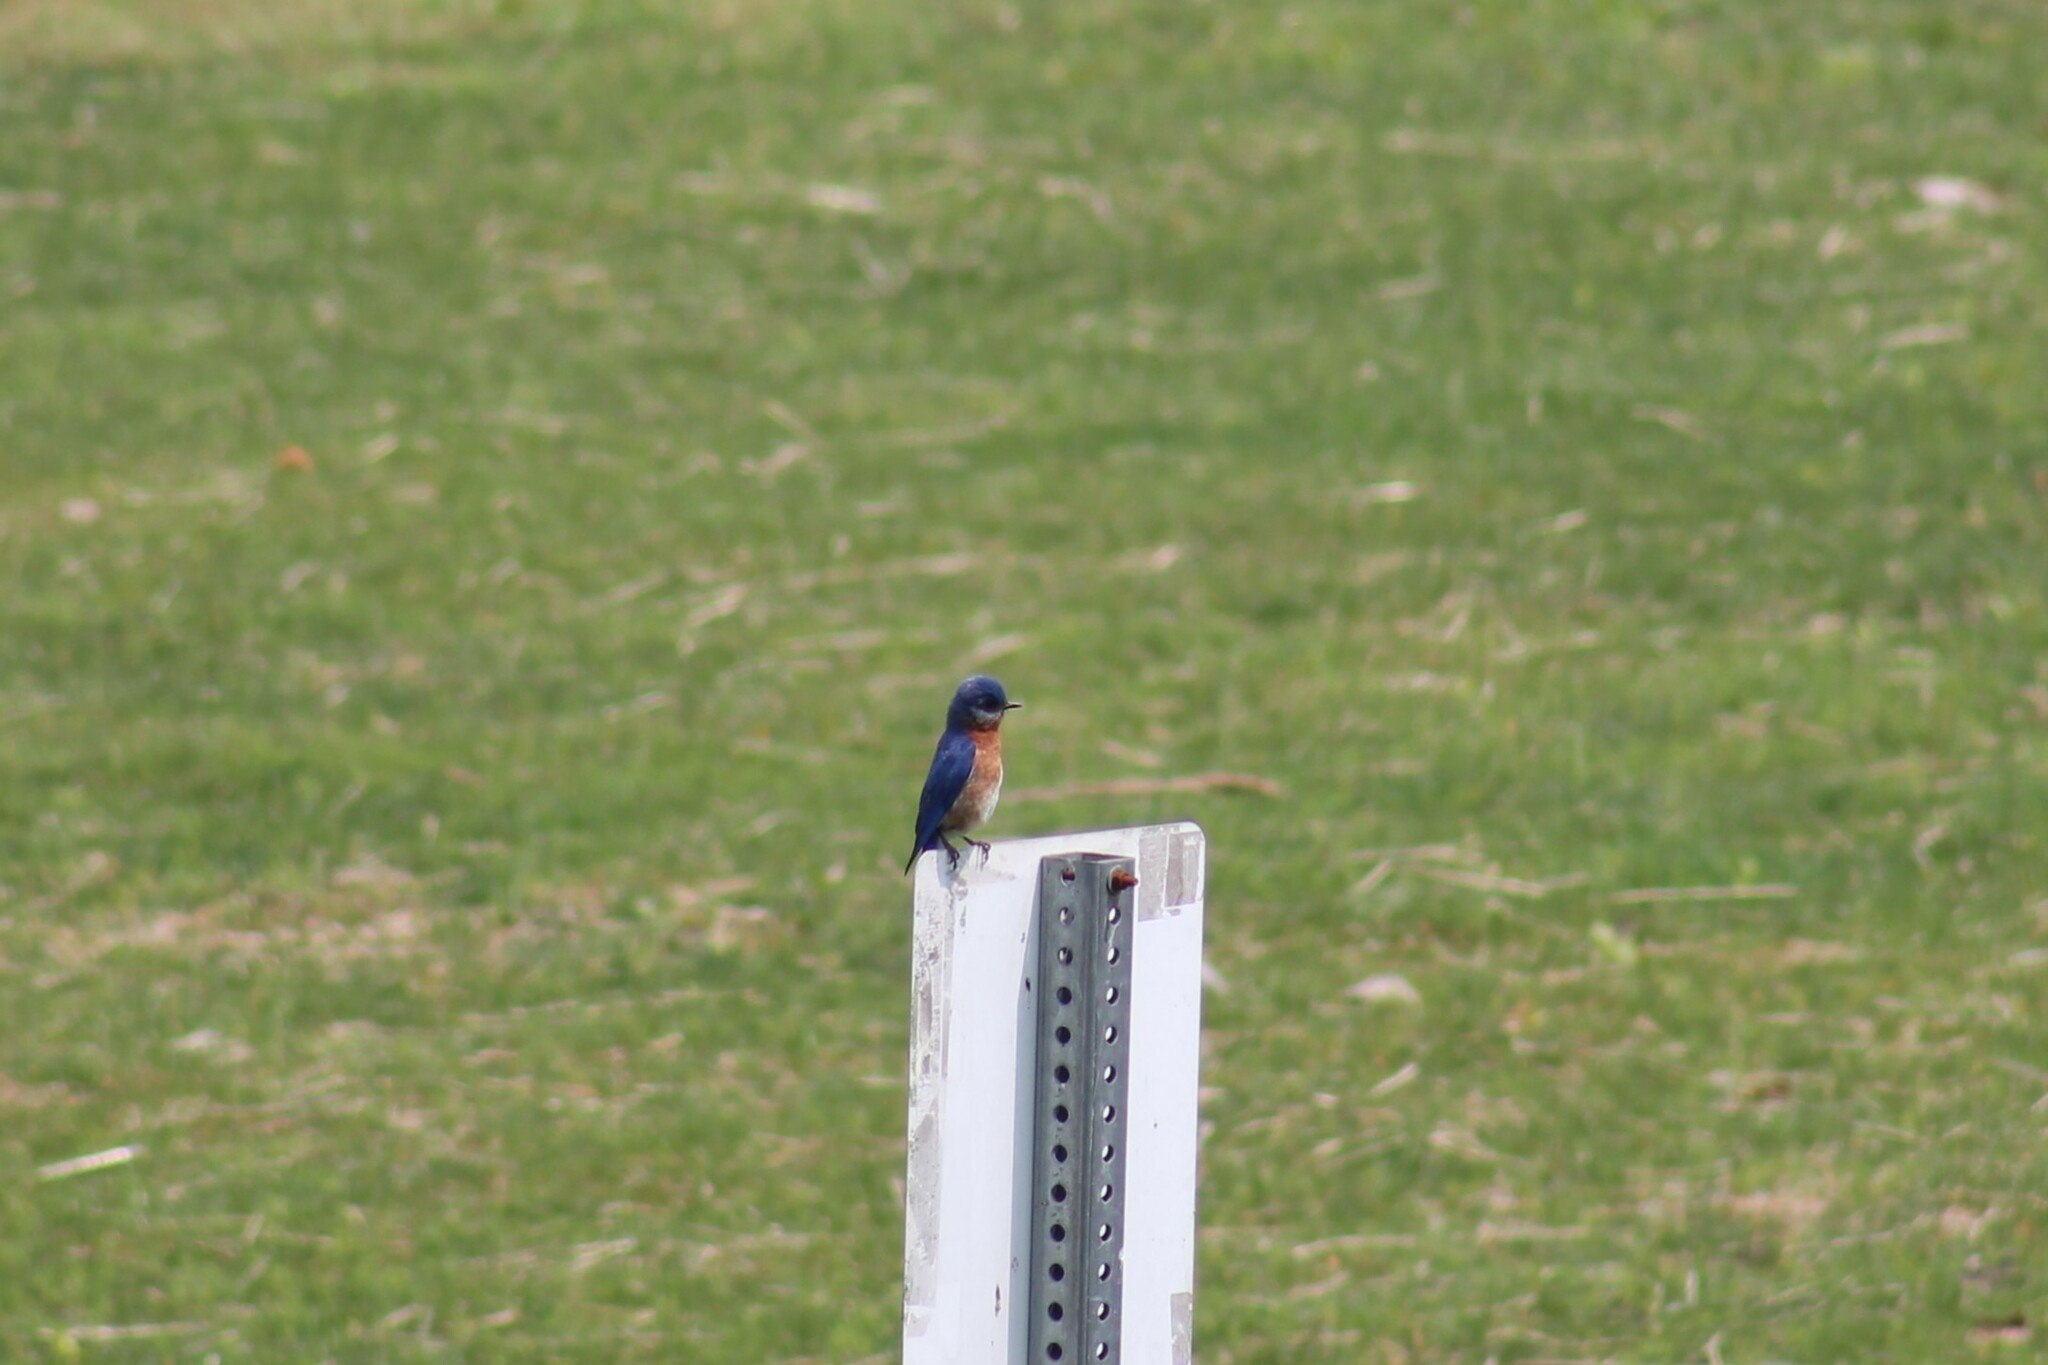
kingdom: Animalia
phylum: Chordata
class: Aves
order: Passeriformes
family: Turdidae
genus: Sialia
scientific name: Sialia sialis
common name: Eastern bluebird
